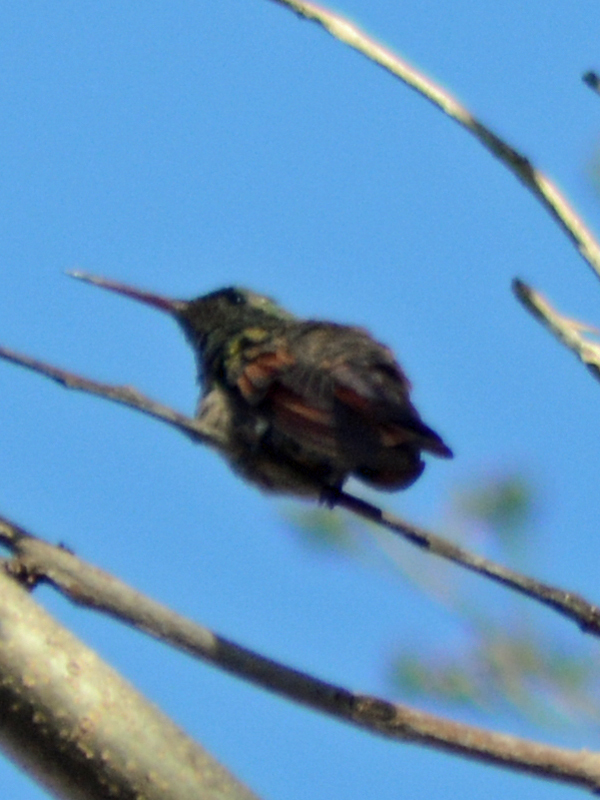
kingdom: Animalia
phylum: Chordata
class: Aves
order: Apodiformes
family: Trochilidae
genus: Saucerottia
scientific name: Saucerottia beryllina
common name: Berylline hummingbird
